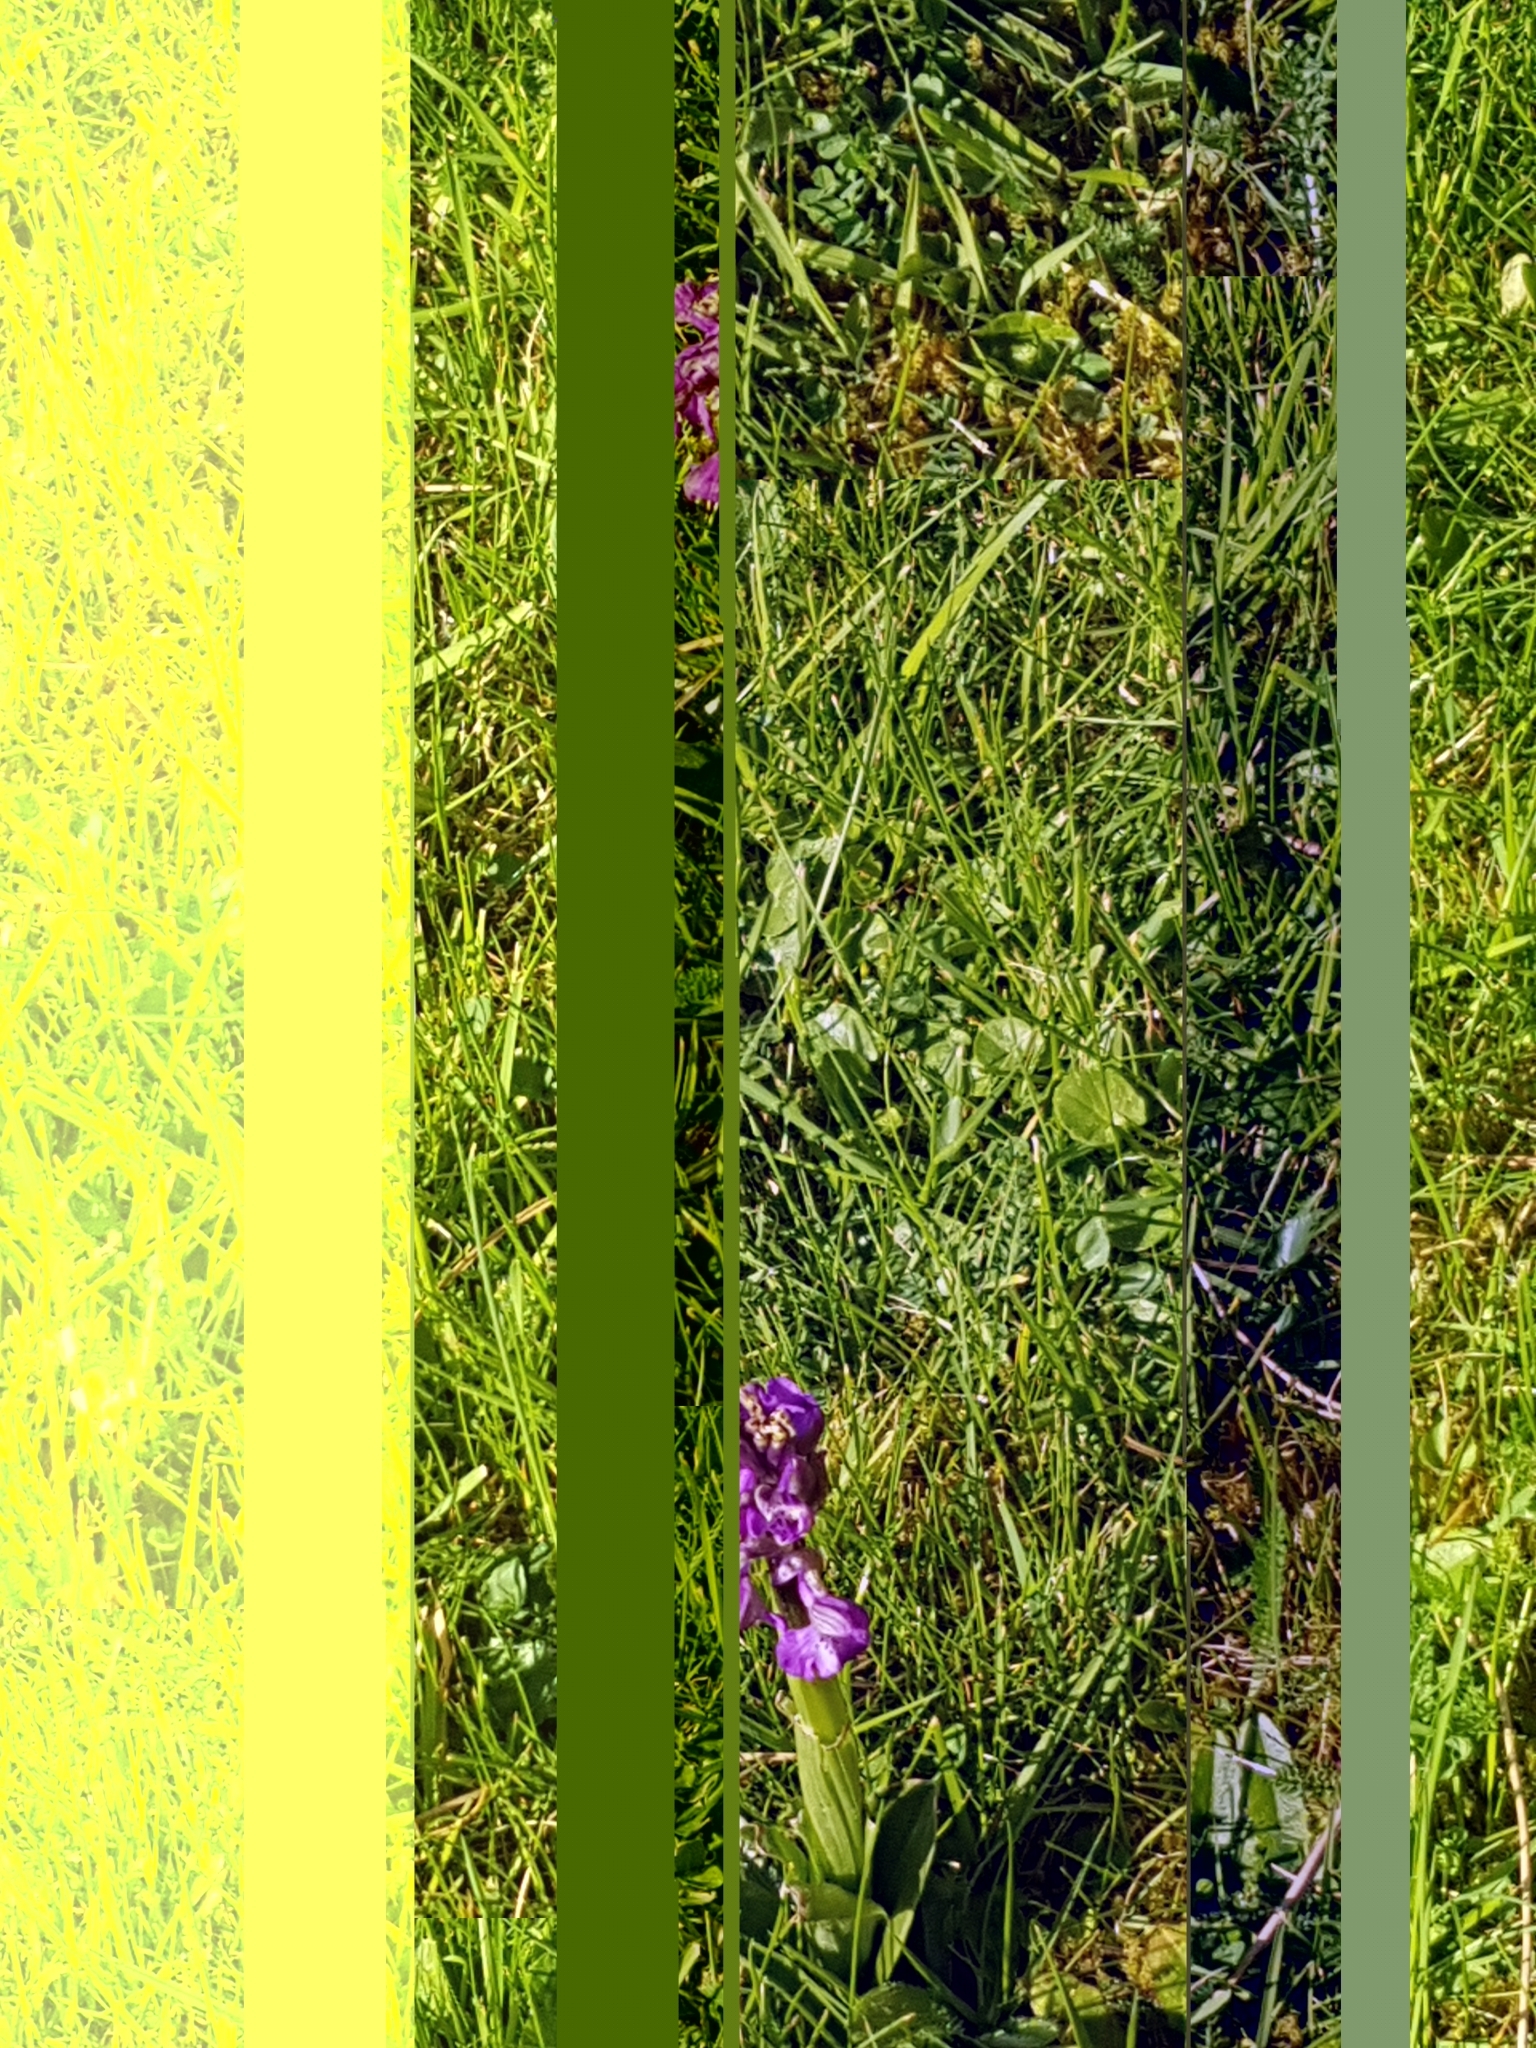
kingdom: Plantae
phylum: Tracheophyta
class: Liliopsida
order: Asparagales
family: Orchidaceae
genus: Anacamptis
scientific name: Anacamptis morio
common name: Green-winged orchid
